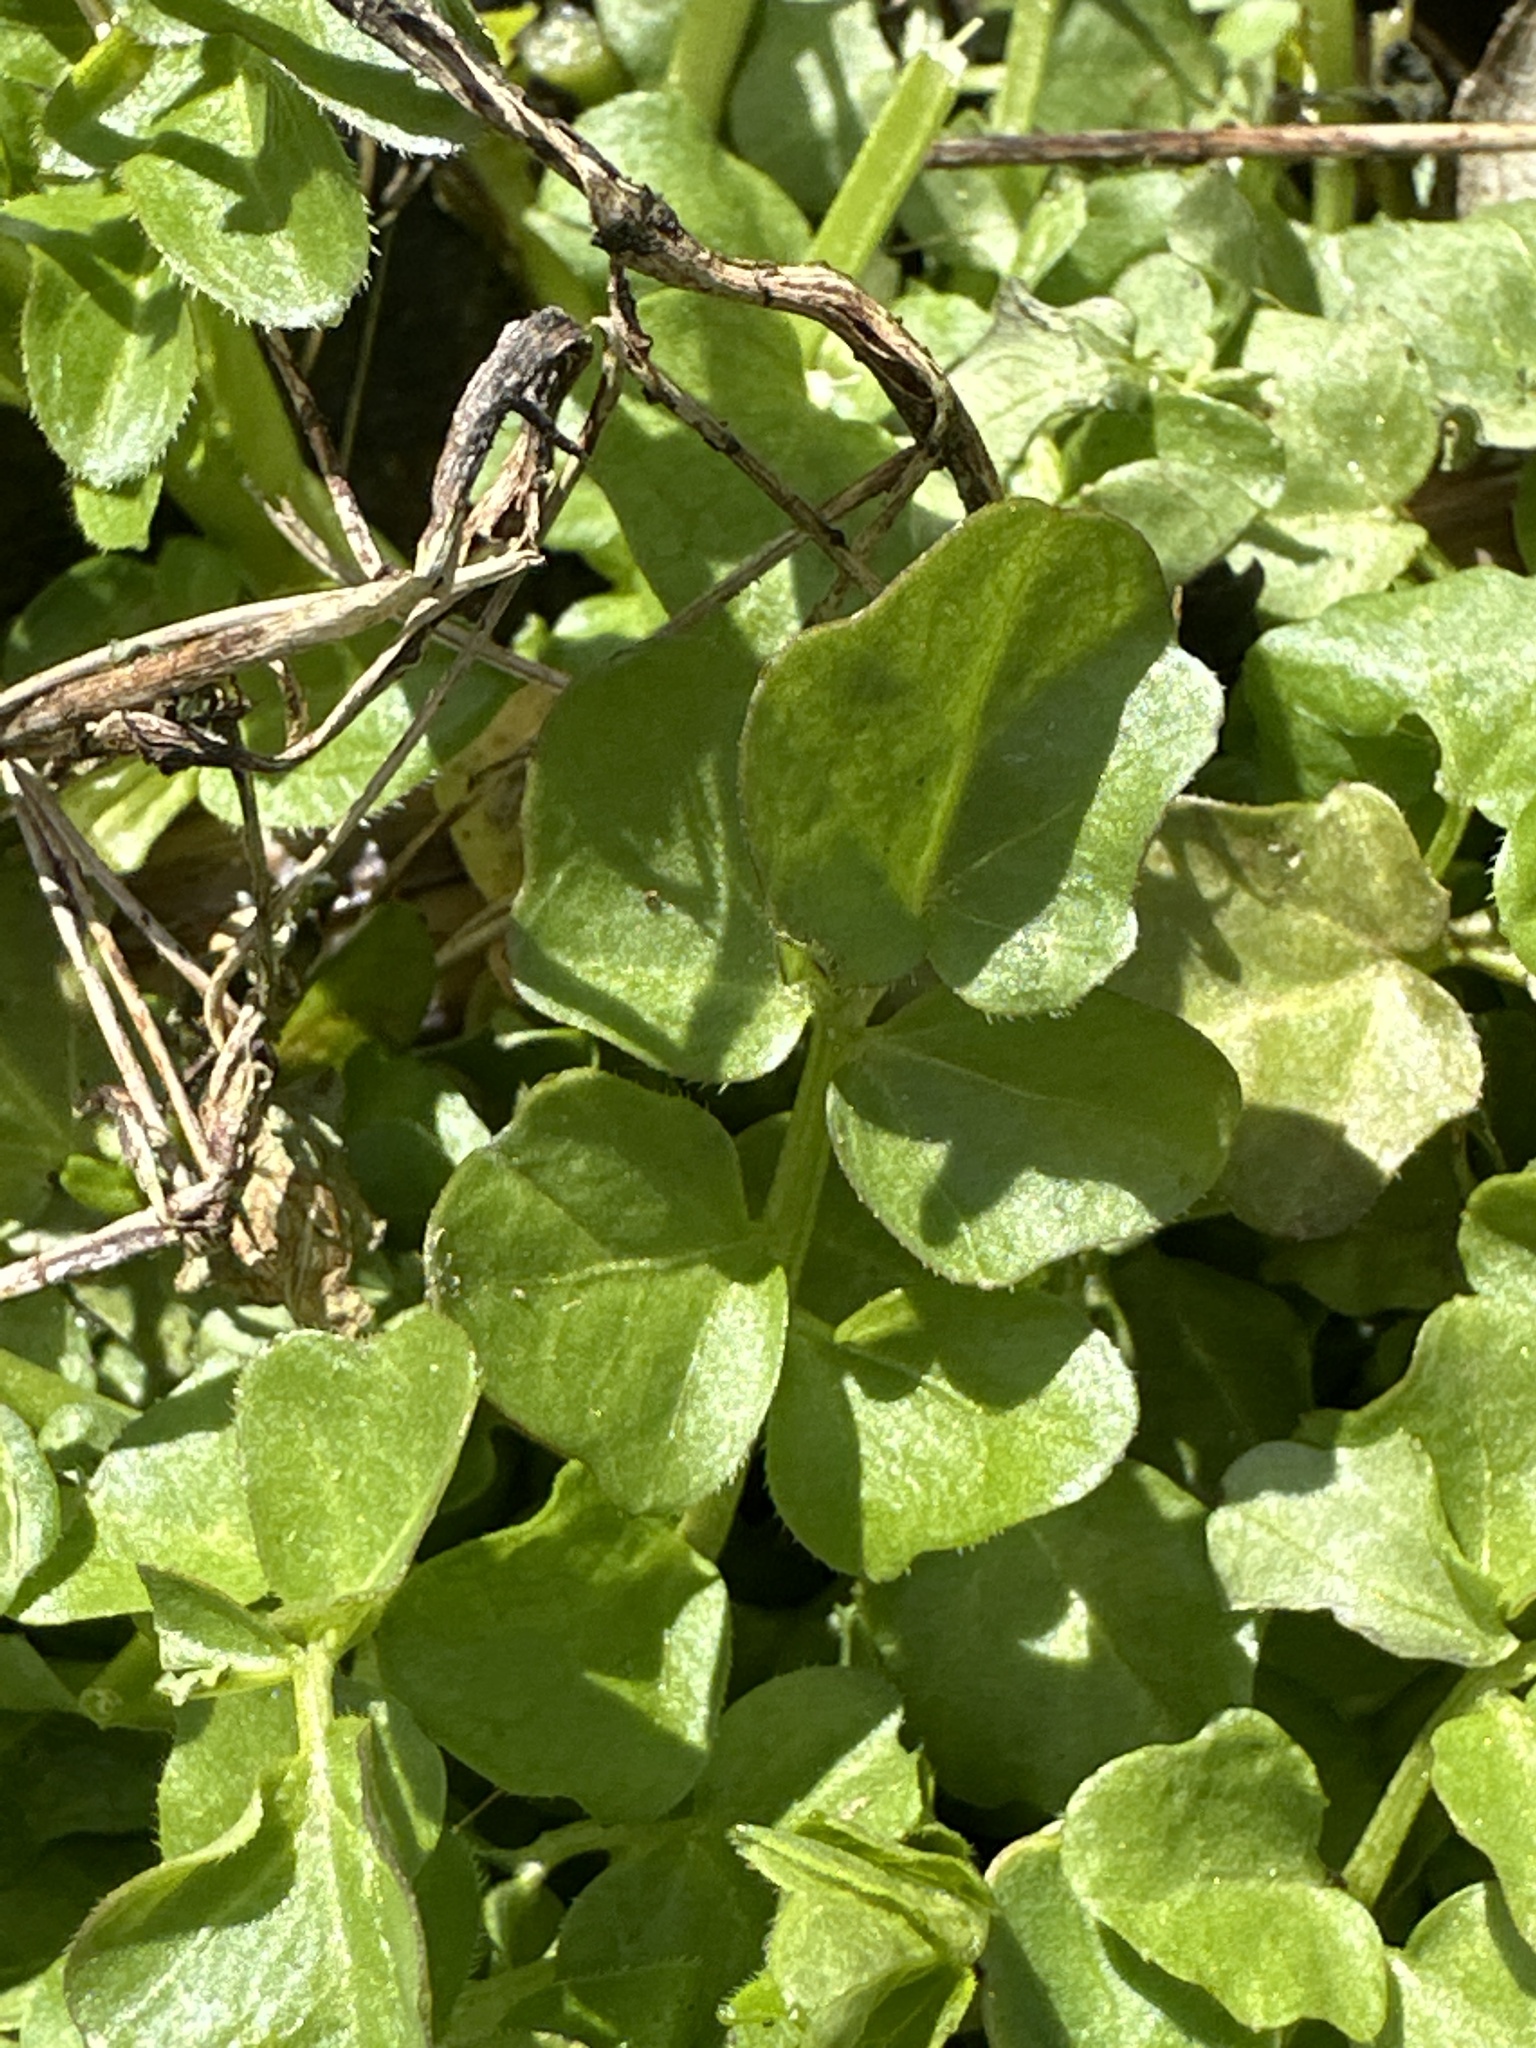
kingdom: Plantae
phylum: Tracheophyta
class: Magnoliopsida
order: Brassicales
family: Brassicaceae
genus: Cardamine
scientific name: Cardamine amara
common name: Large bitter-cress
